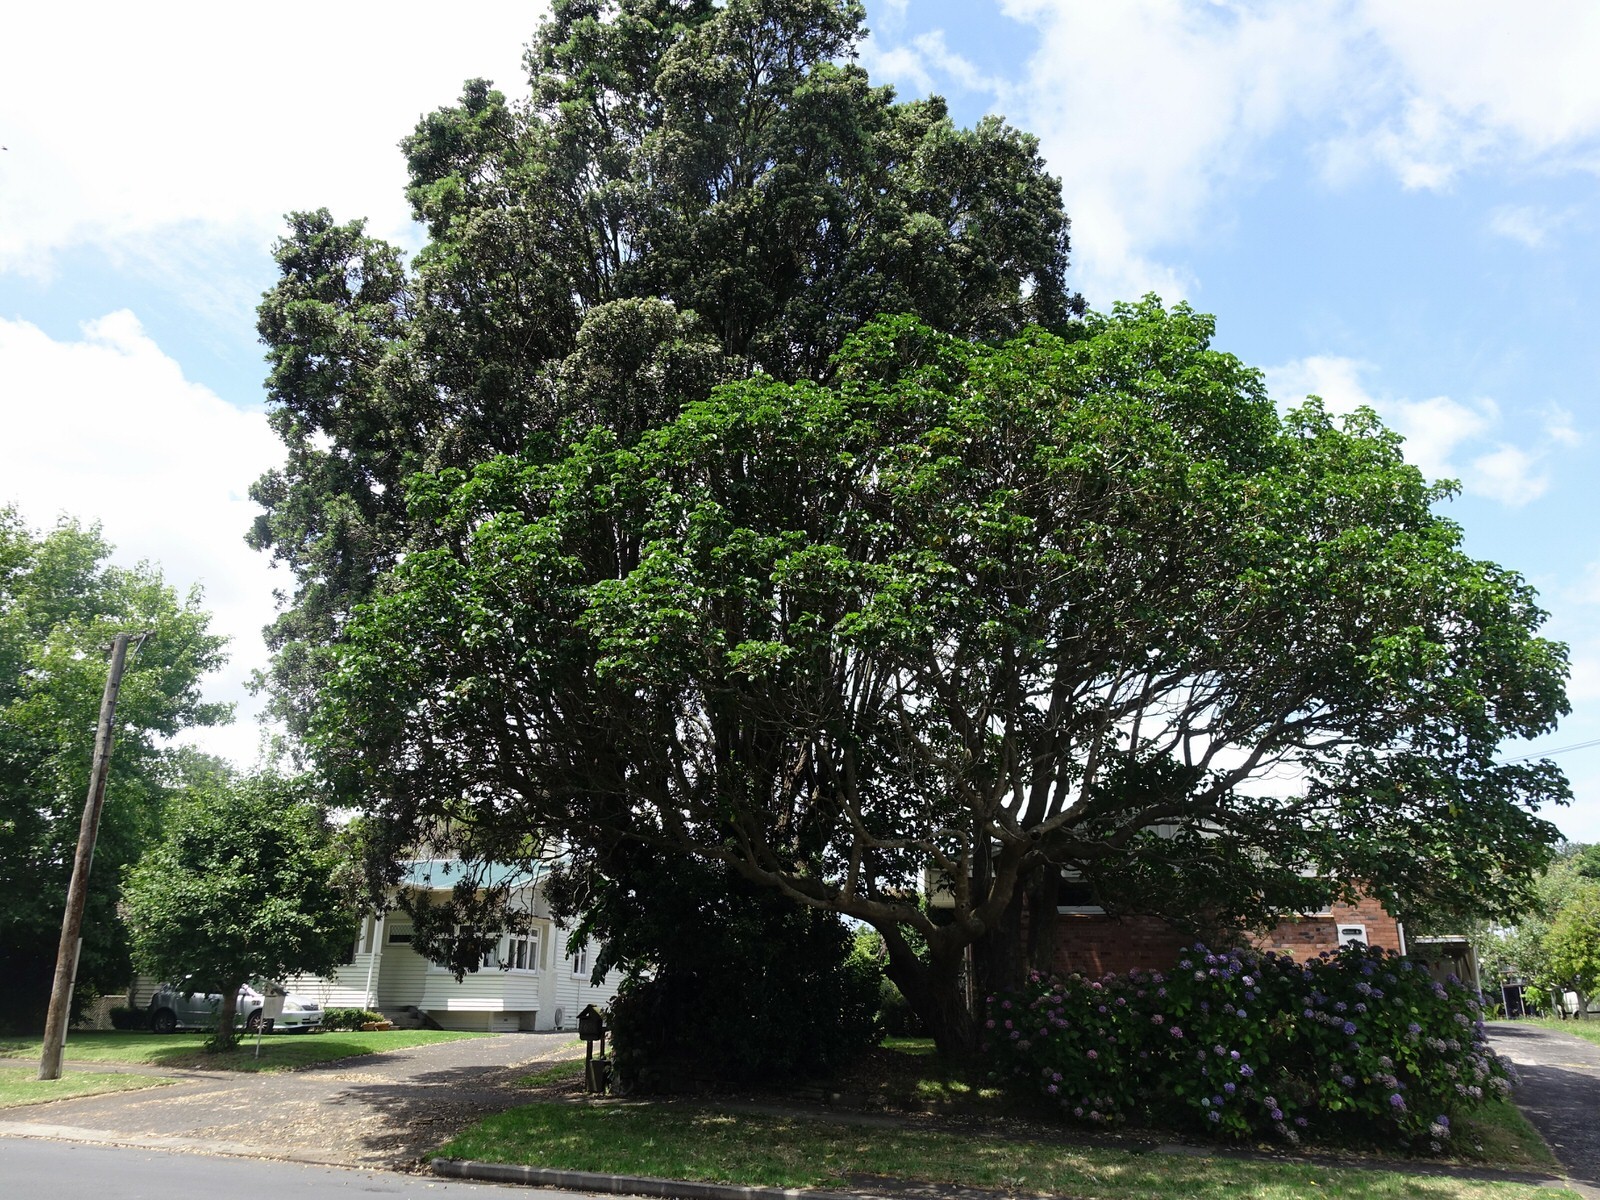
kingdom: Animalia
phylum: Chordata
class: Aves
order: Columbiformes
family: Columbidae
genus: Hemiphaga
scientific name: Hemiphaga novaeseelandiae
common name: New zealand pigeon
